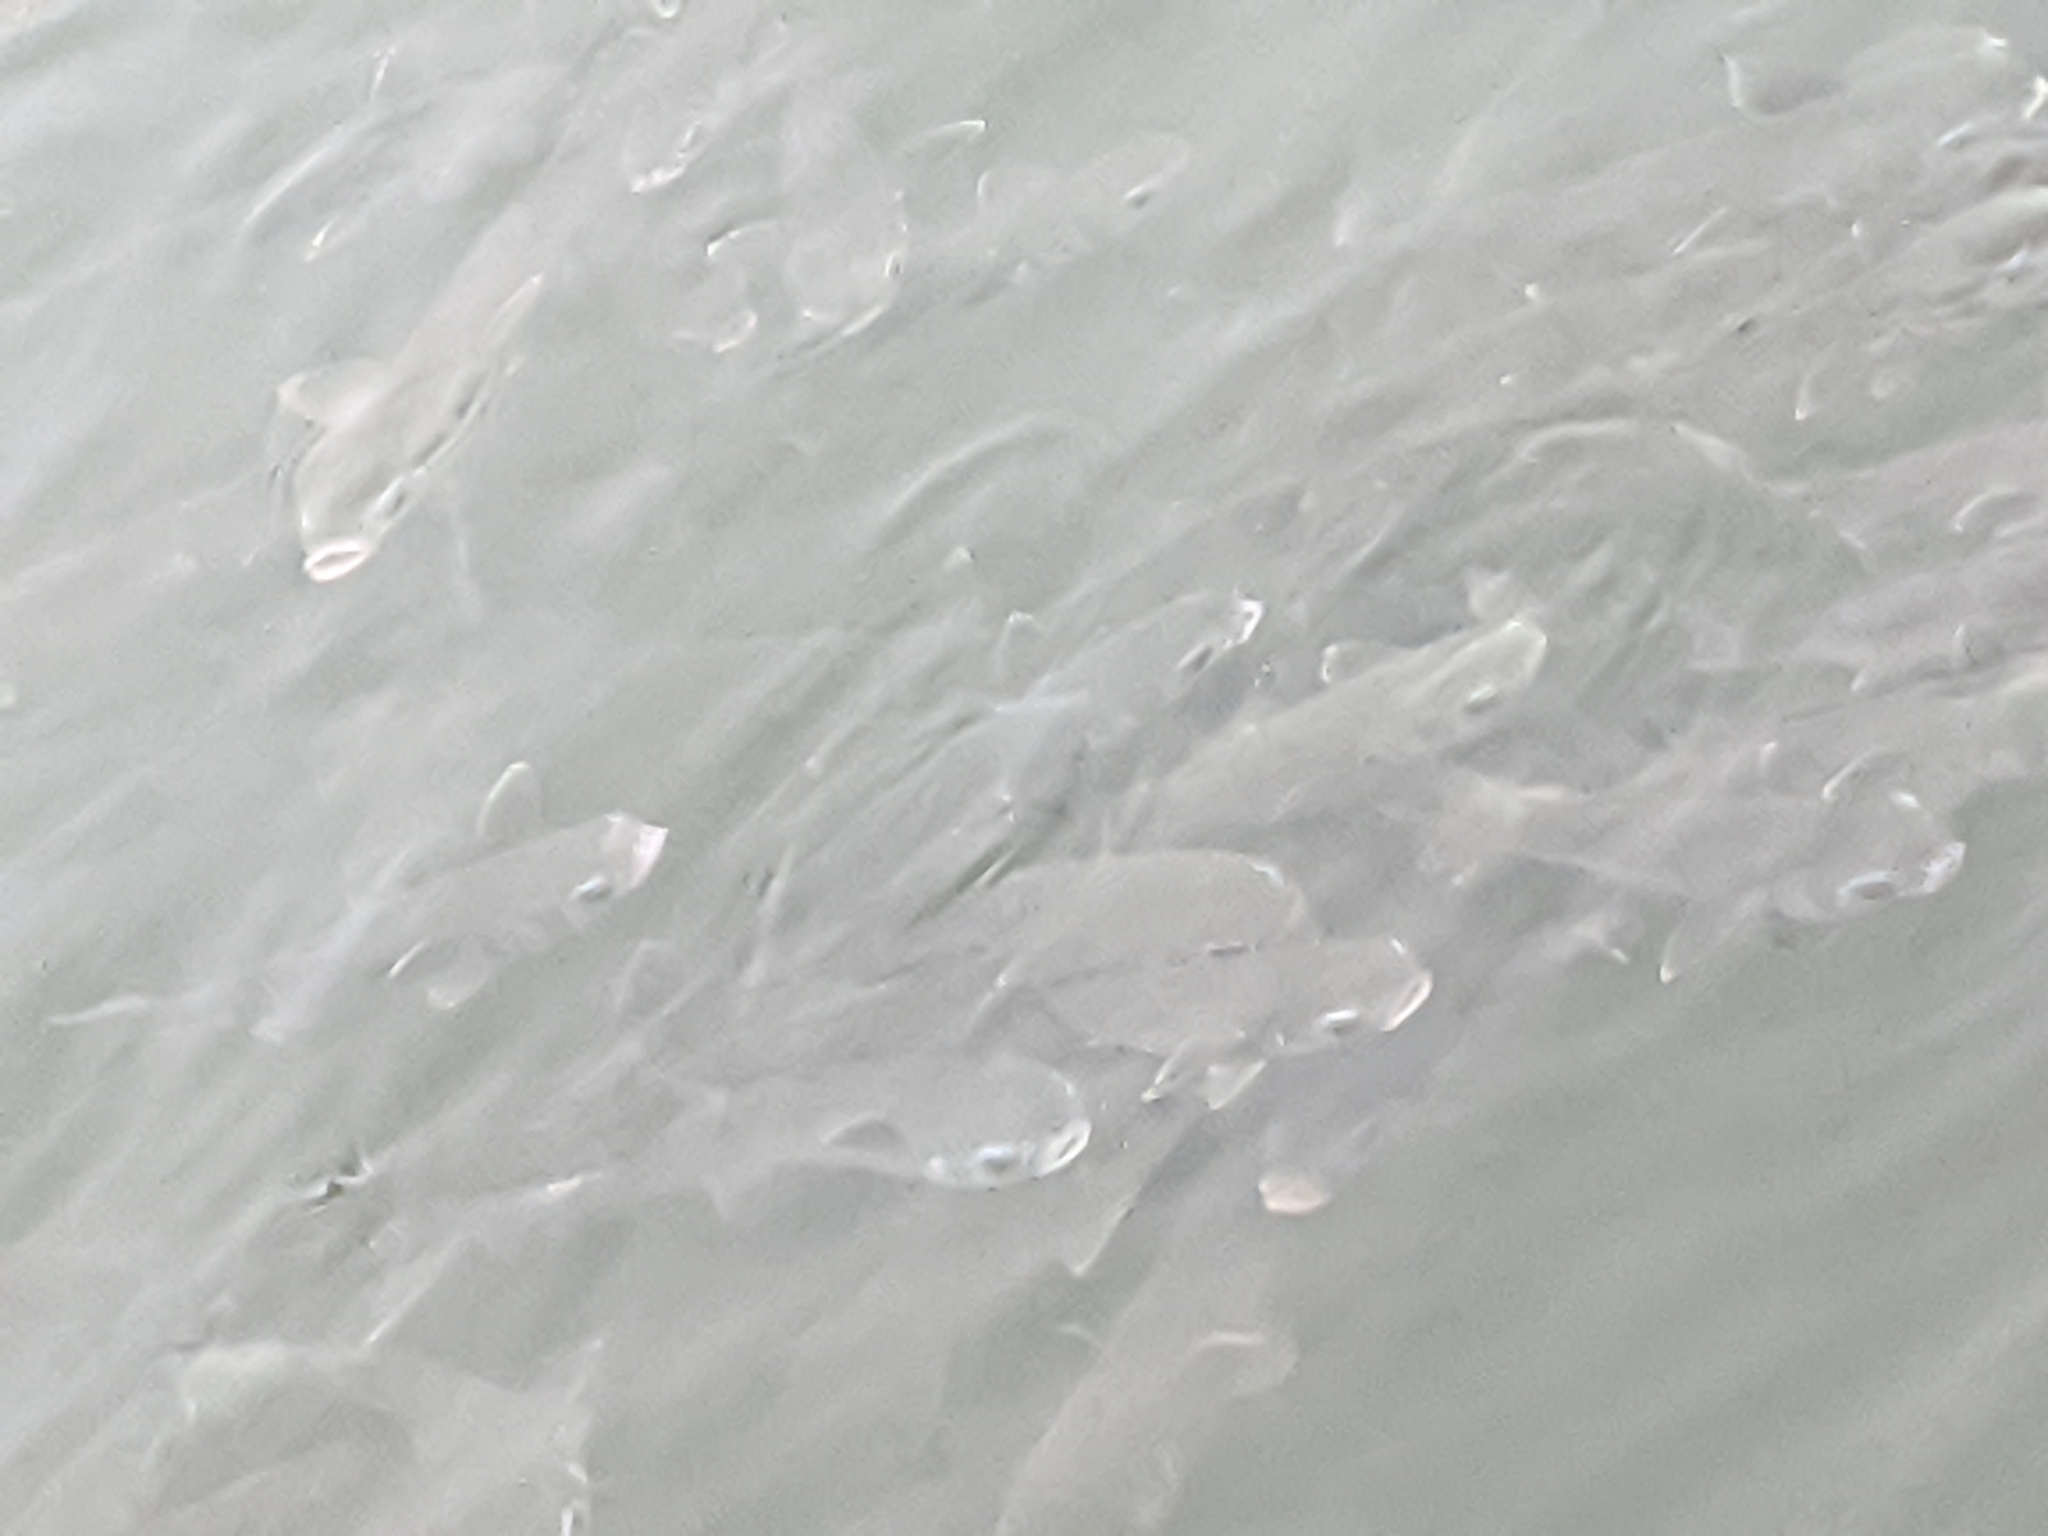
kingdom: Animalia
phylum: Chordata
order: Mugiliformes
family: Mugilidae
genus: Mugil
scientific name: Mugil cephalus
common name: Grey mullet
